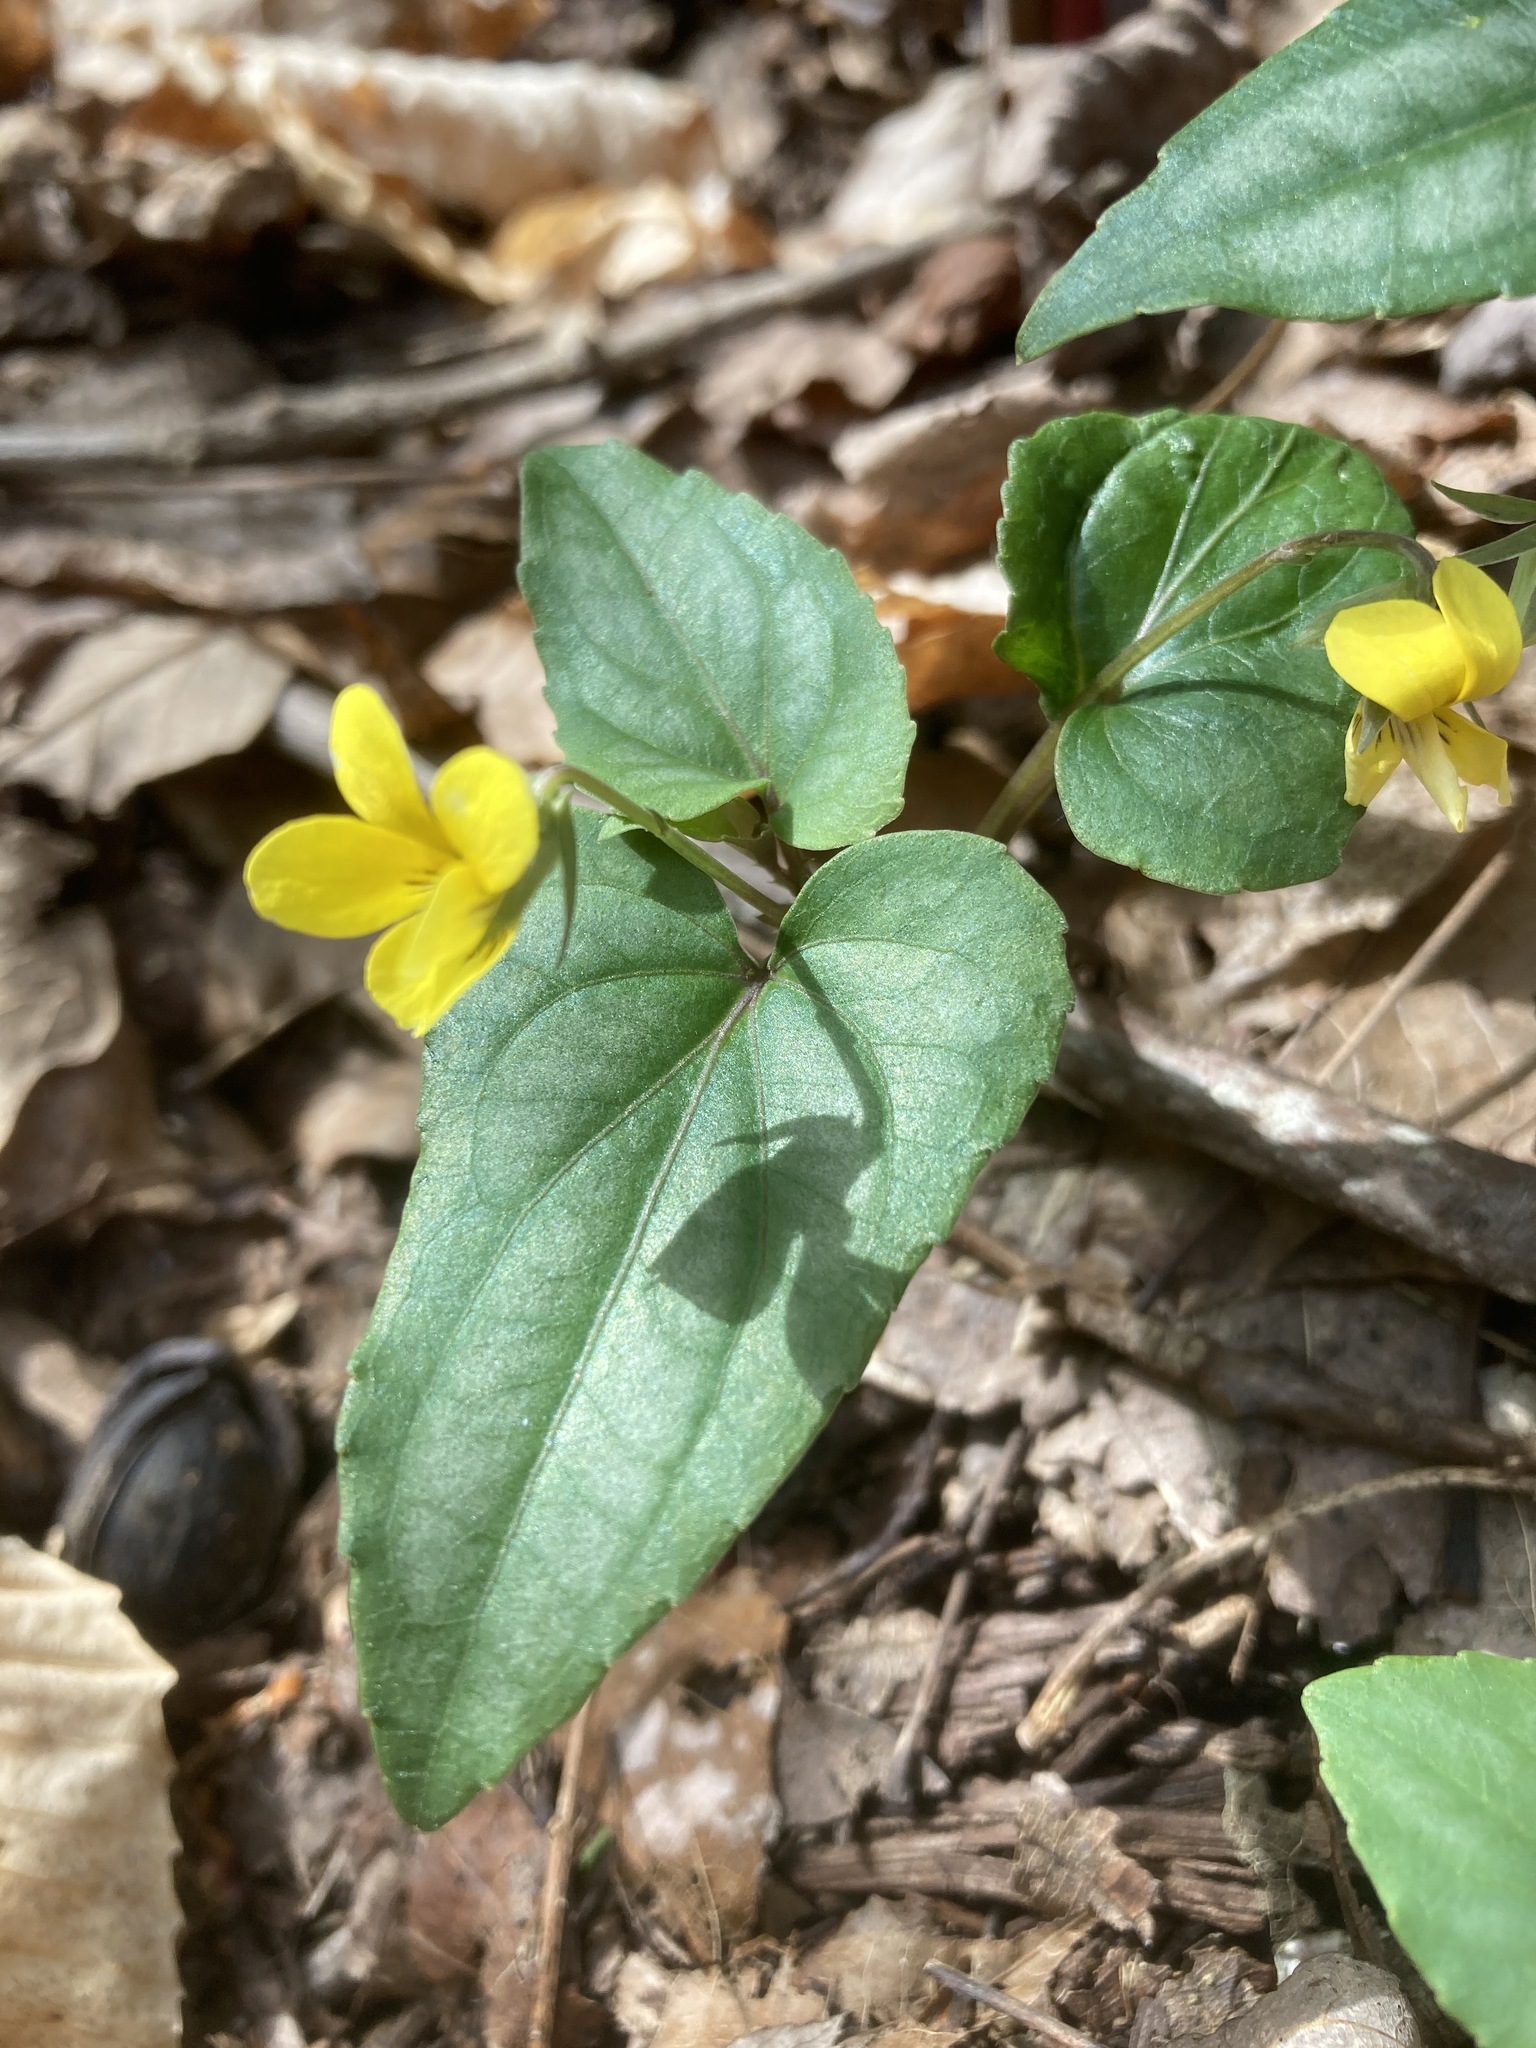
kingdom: Plantae
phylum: Tracheophyta
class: Magnoliopsida
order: Malpighiales
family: Violaceae
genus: Viola
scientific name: Viola hastata
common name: Spear-leaf violet
